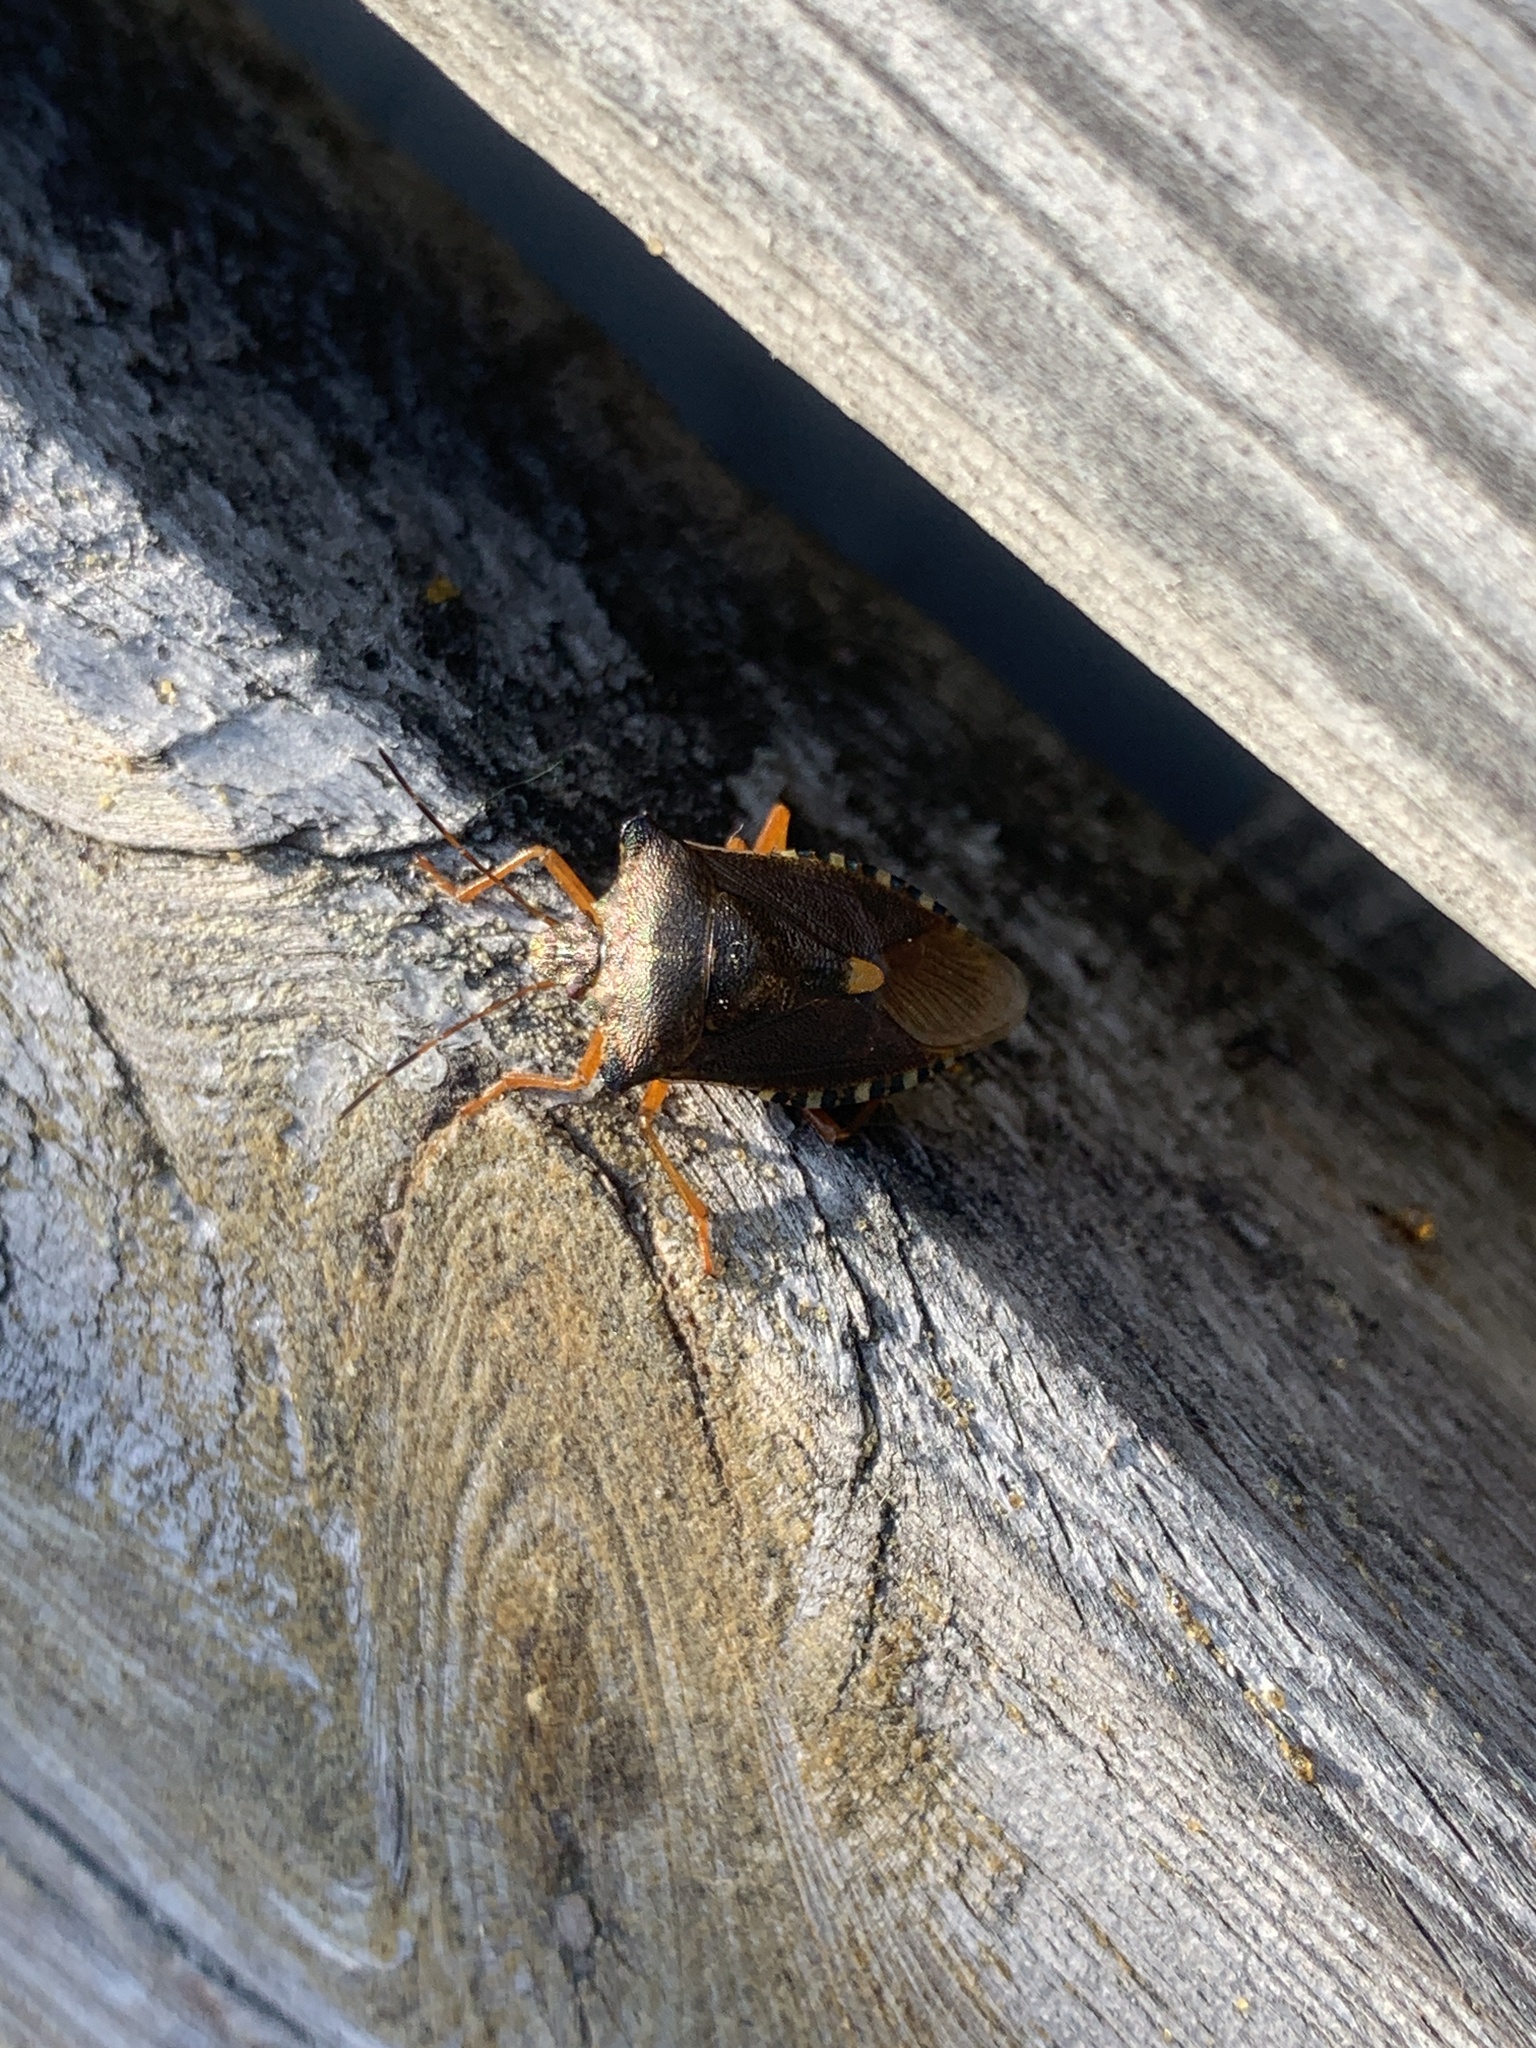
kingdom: Animalia
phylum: Arthropoda
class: Insecta
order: Hemiptera
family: Pentatomidae
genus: Pentatoma
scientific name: Pentatoma rufipes
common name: Forest bug
